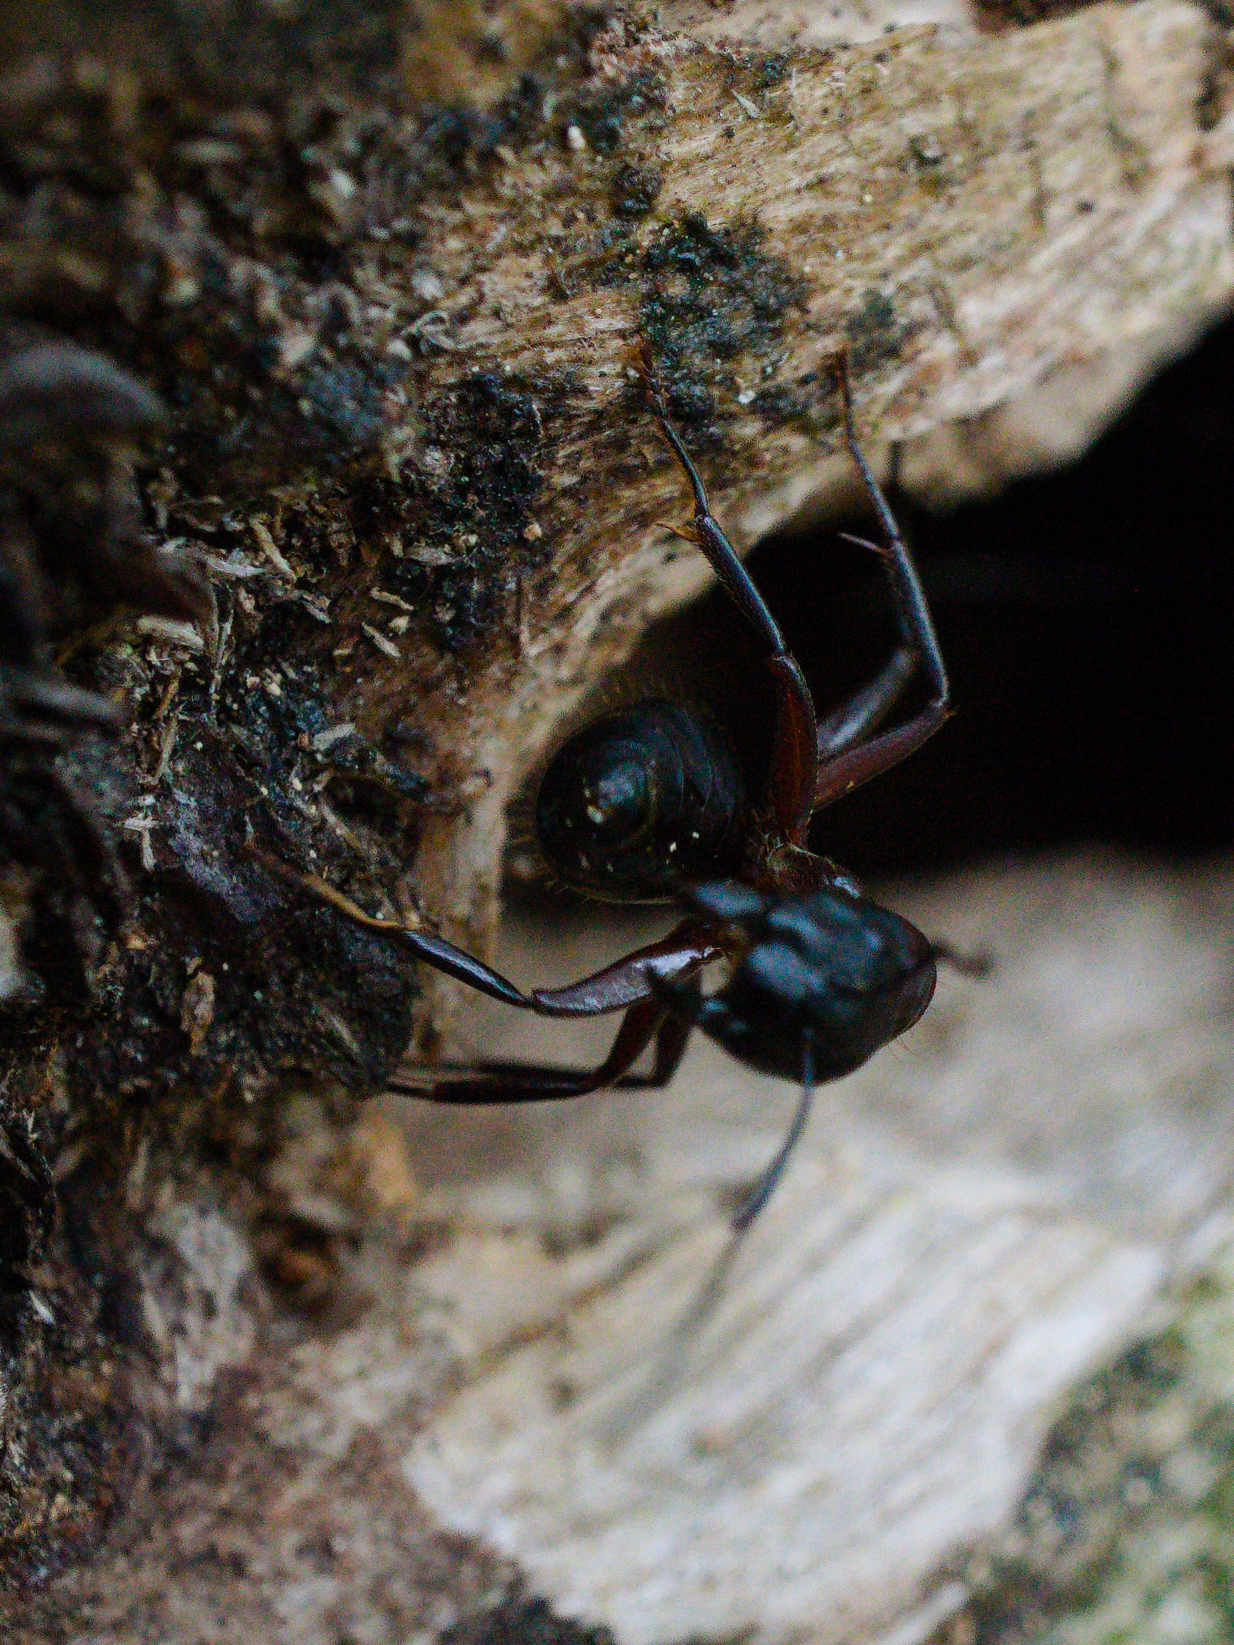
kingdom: Animalia
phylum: Arthropoda
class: Insecta
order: Hymenoptera
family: Formicidae
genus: Camponotus
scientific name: Camponotus ligniperdus
